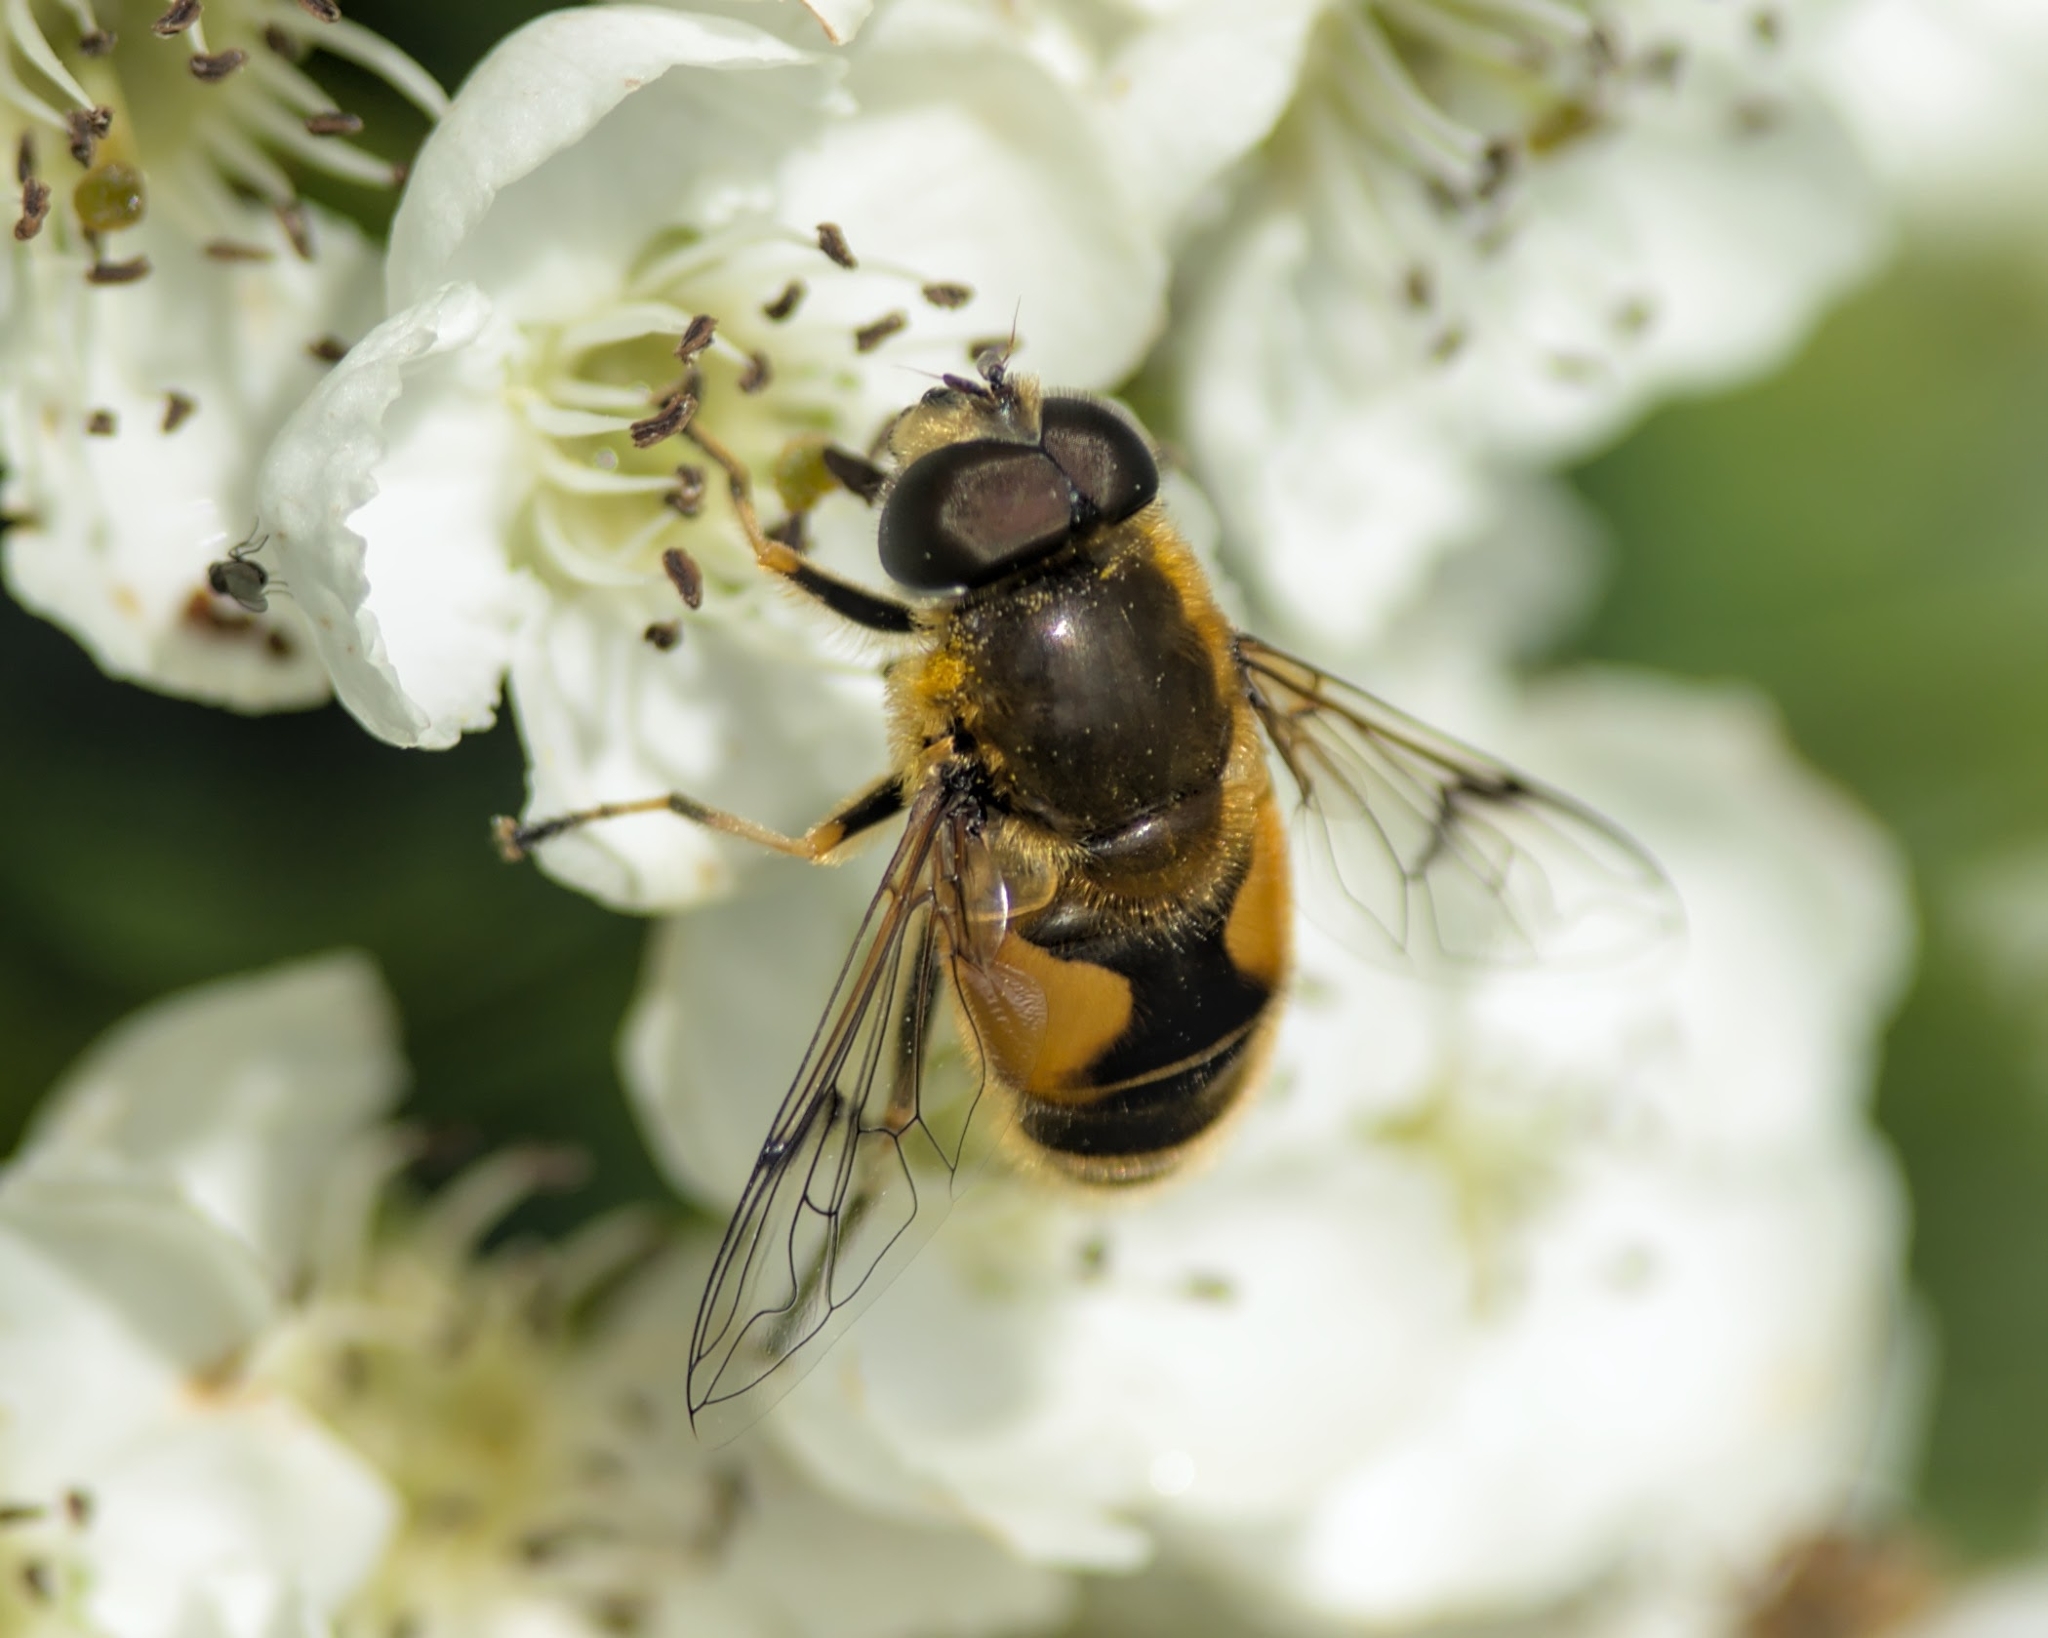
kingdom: Animalia
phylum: Arthropoda
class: Insecta
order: Diptera
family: Syrphidae
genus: Cheilosia
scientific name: Cheilosia morio
